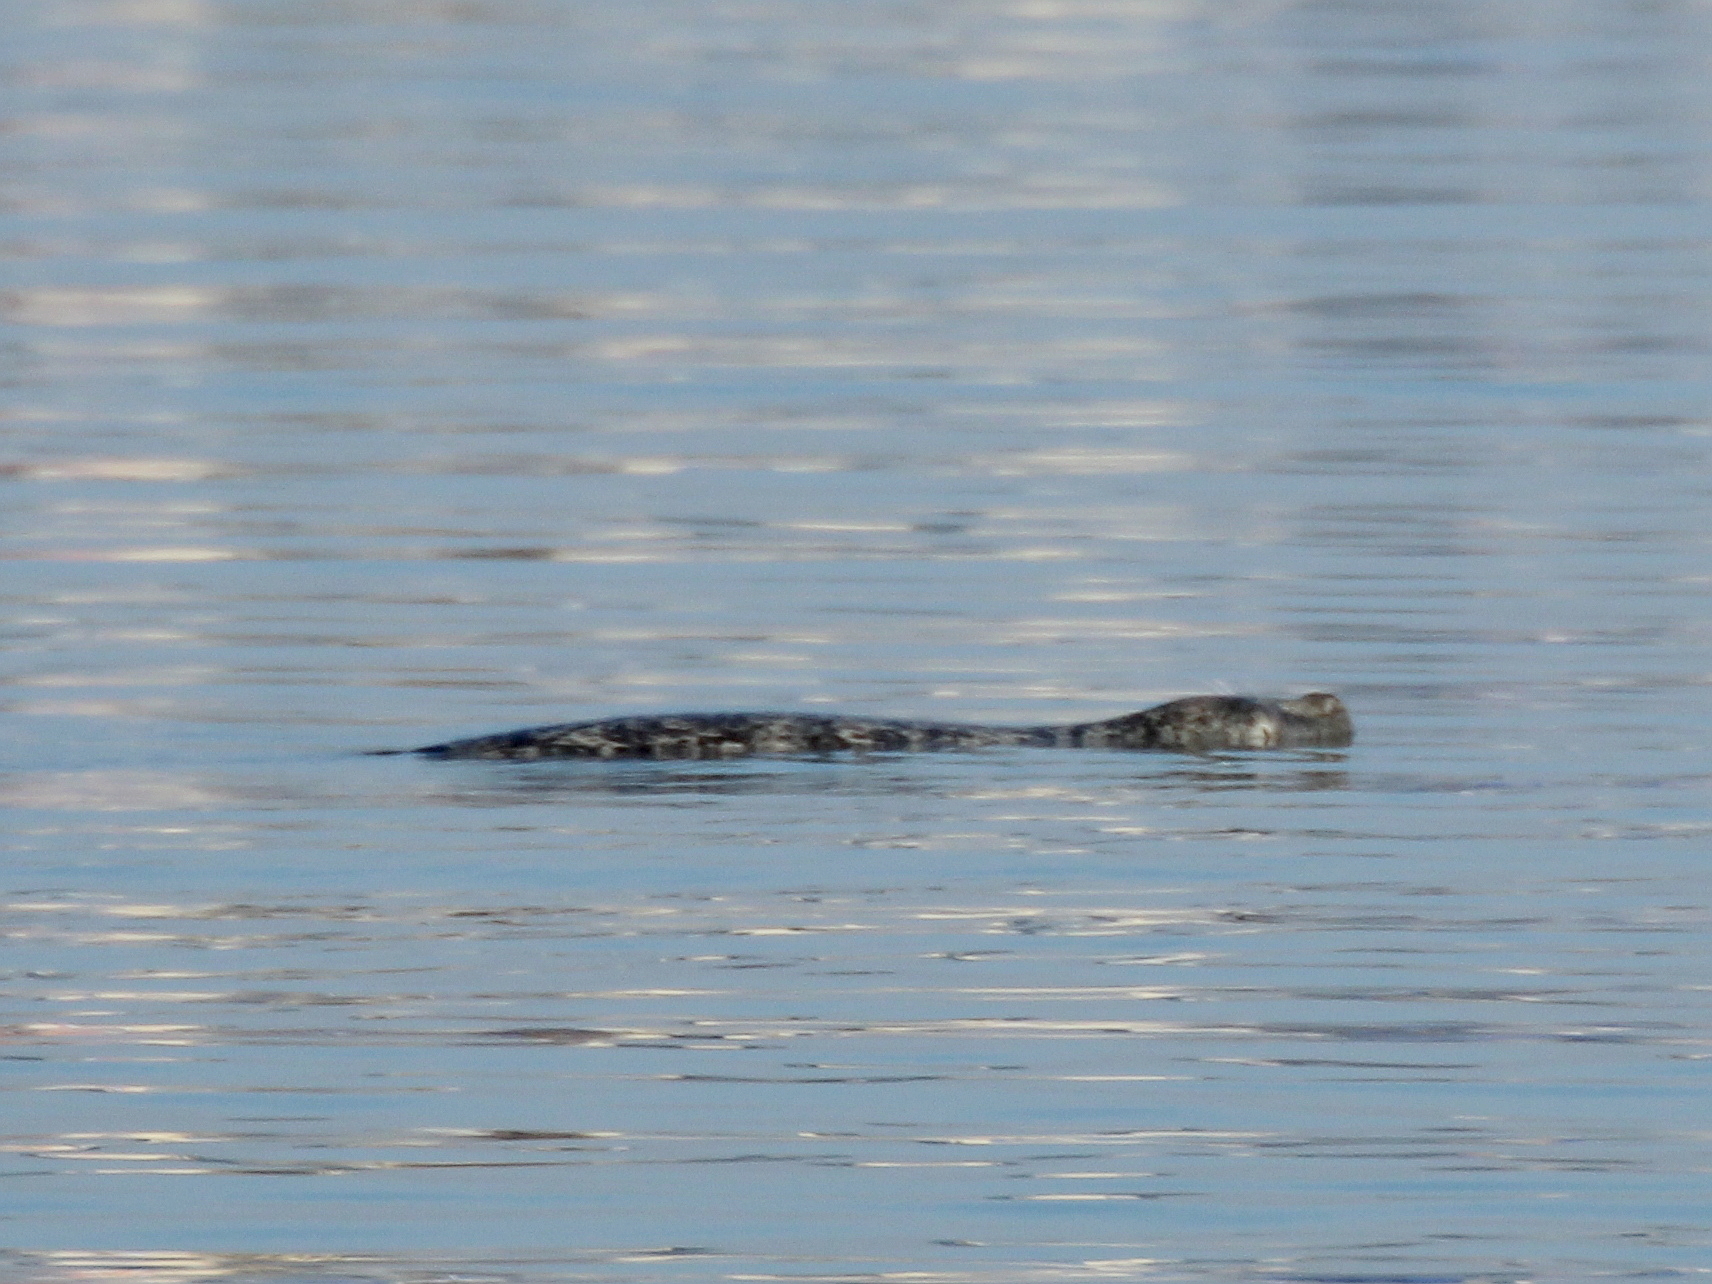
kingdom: Animalia
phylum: Chordata
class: Mammalia
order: Carnivora
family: Phocidae
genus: Phoca
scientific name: Phoca largha
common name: Spotted seal
